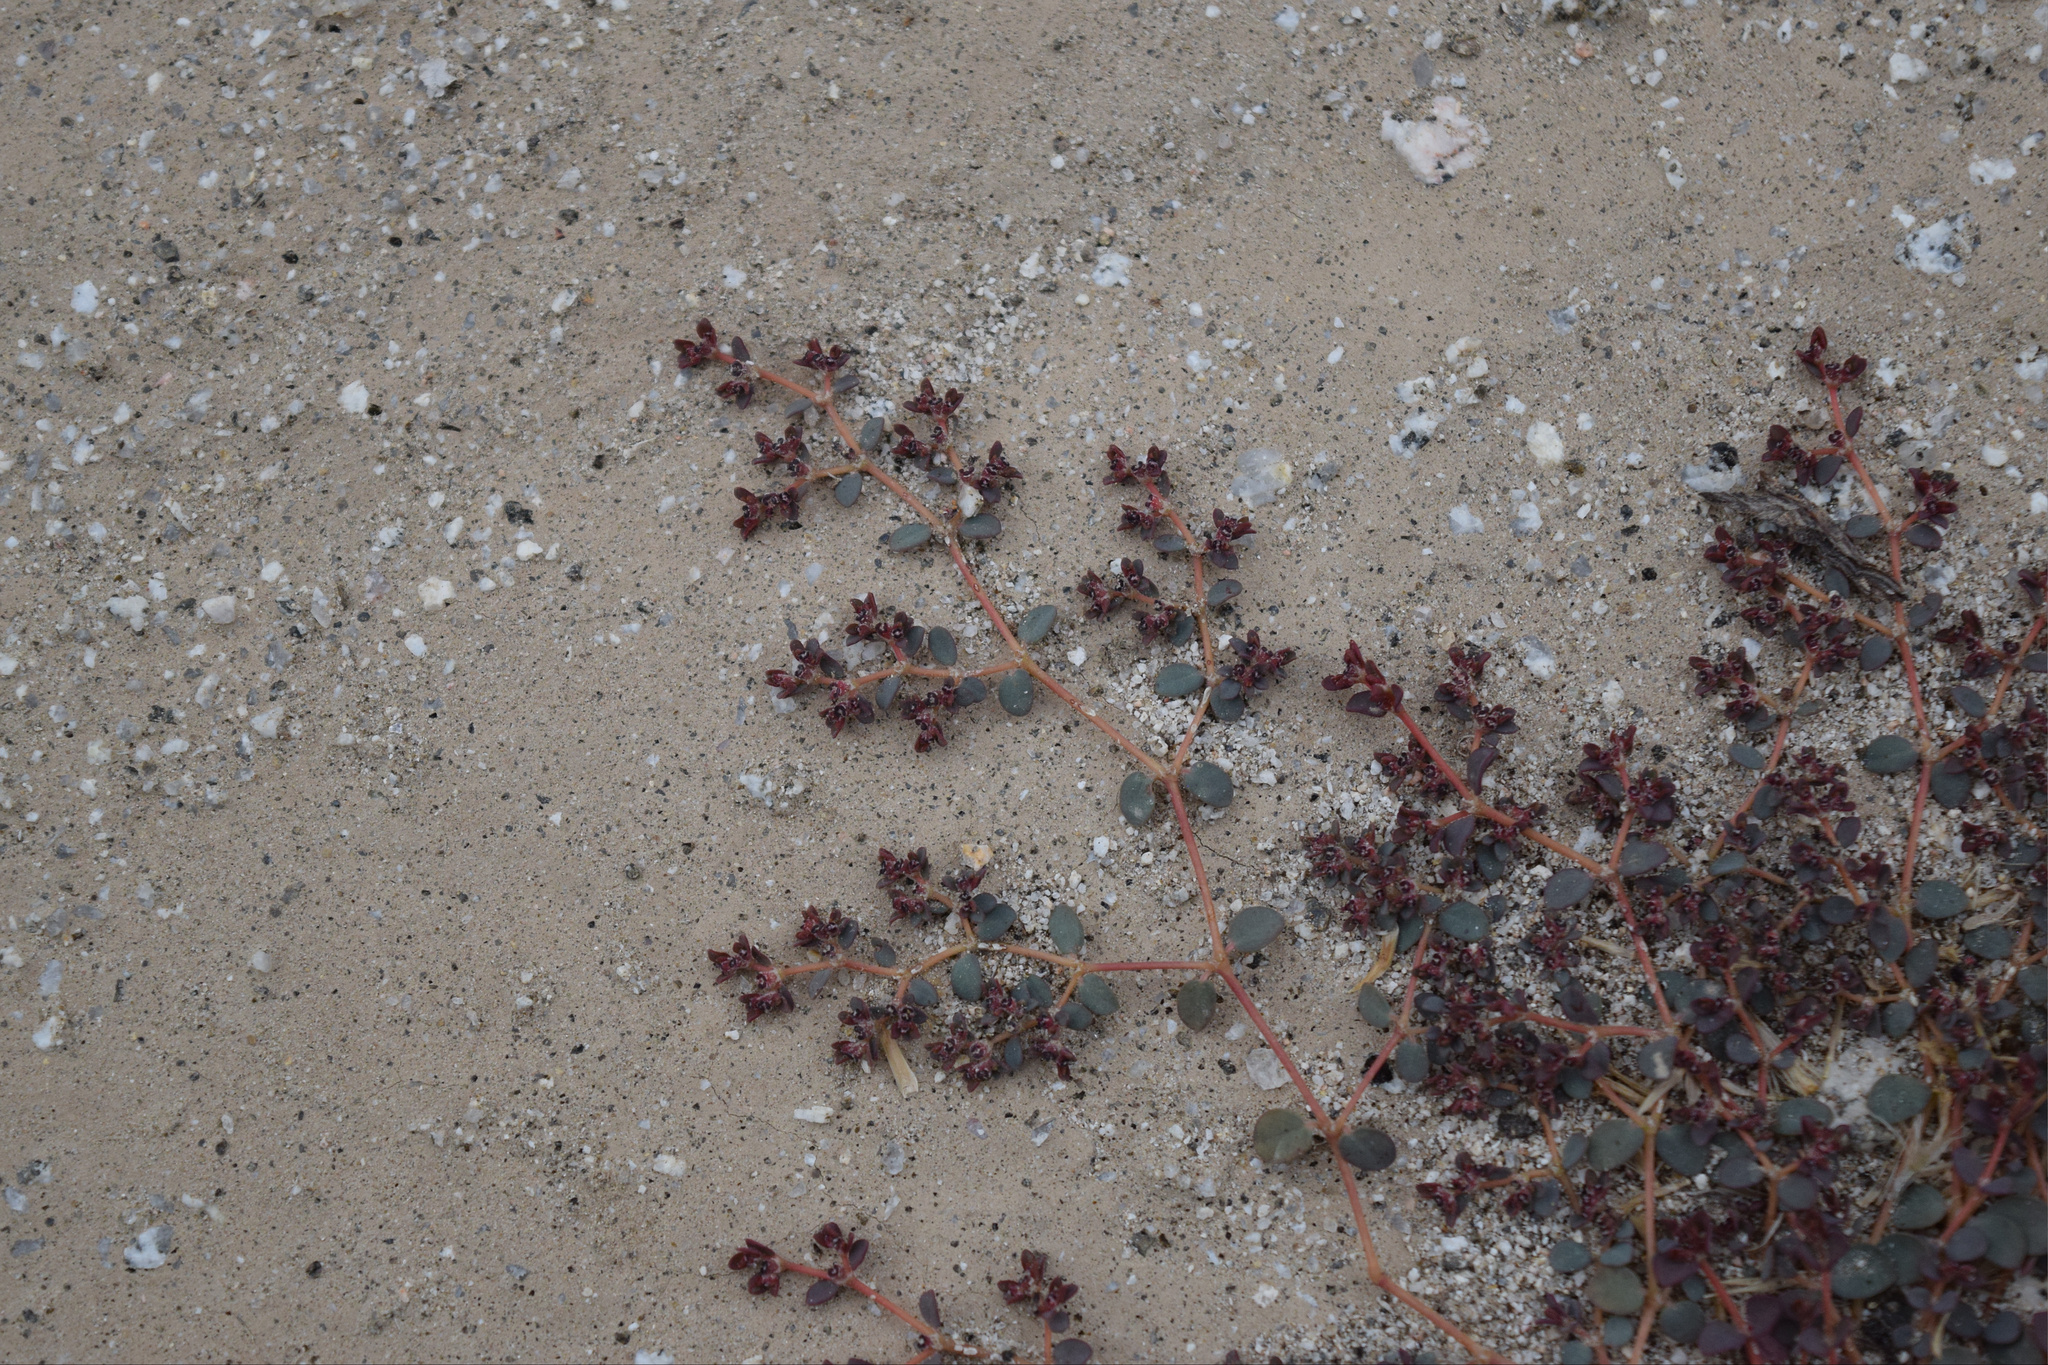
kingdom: Plantae
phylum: Tracheophyta
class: Magnoliopsida
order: Malpighiales
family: Euphorbiaceae
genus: Euphorbia
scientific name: Euphorbia polycarpa
